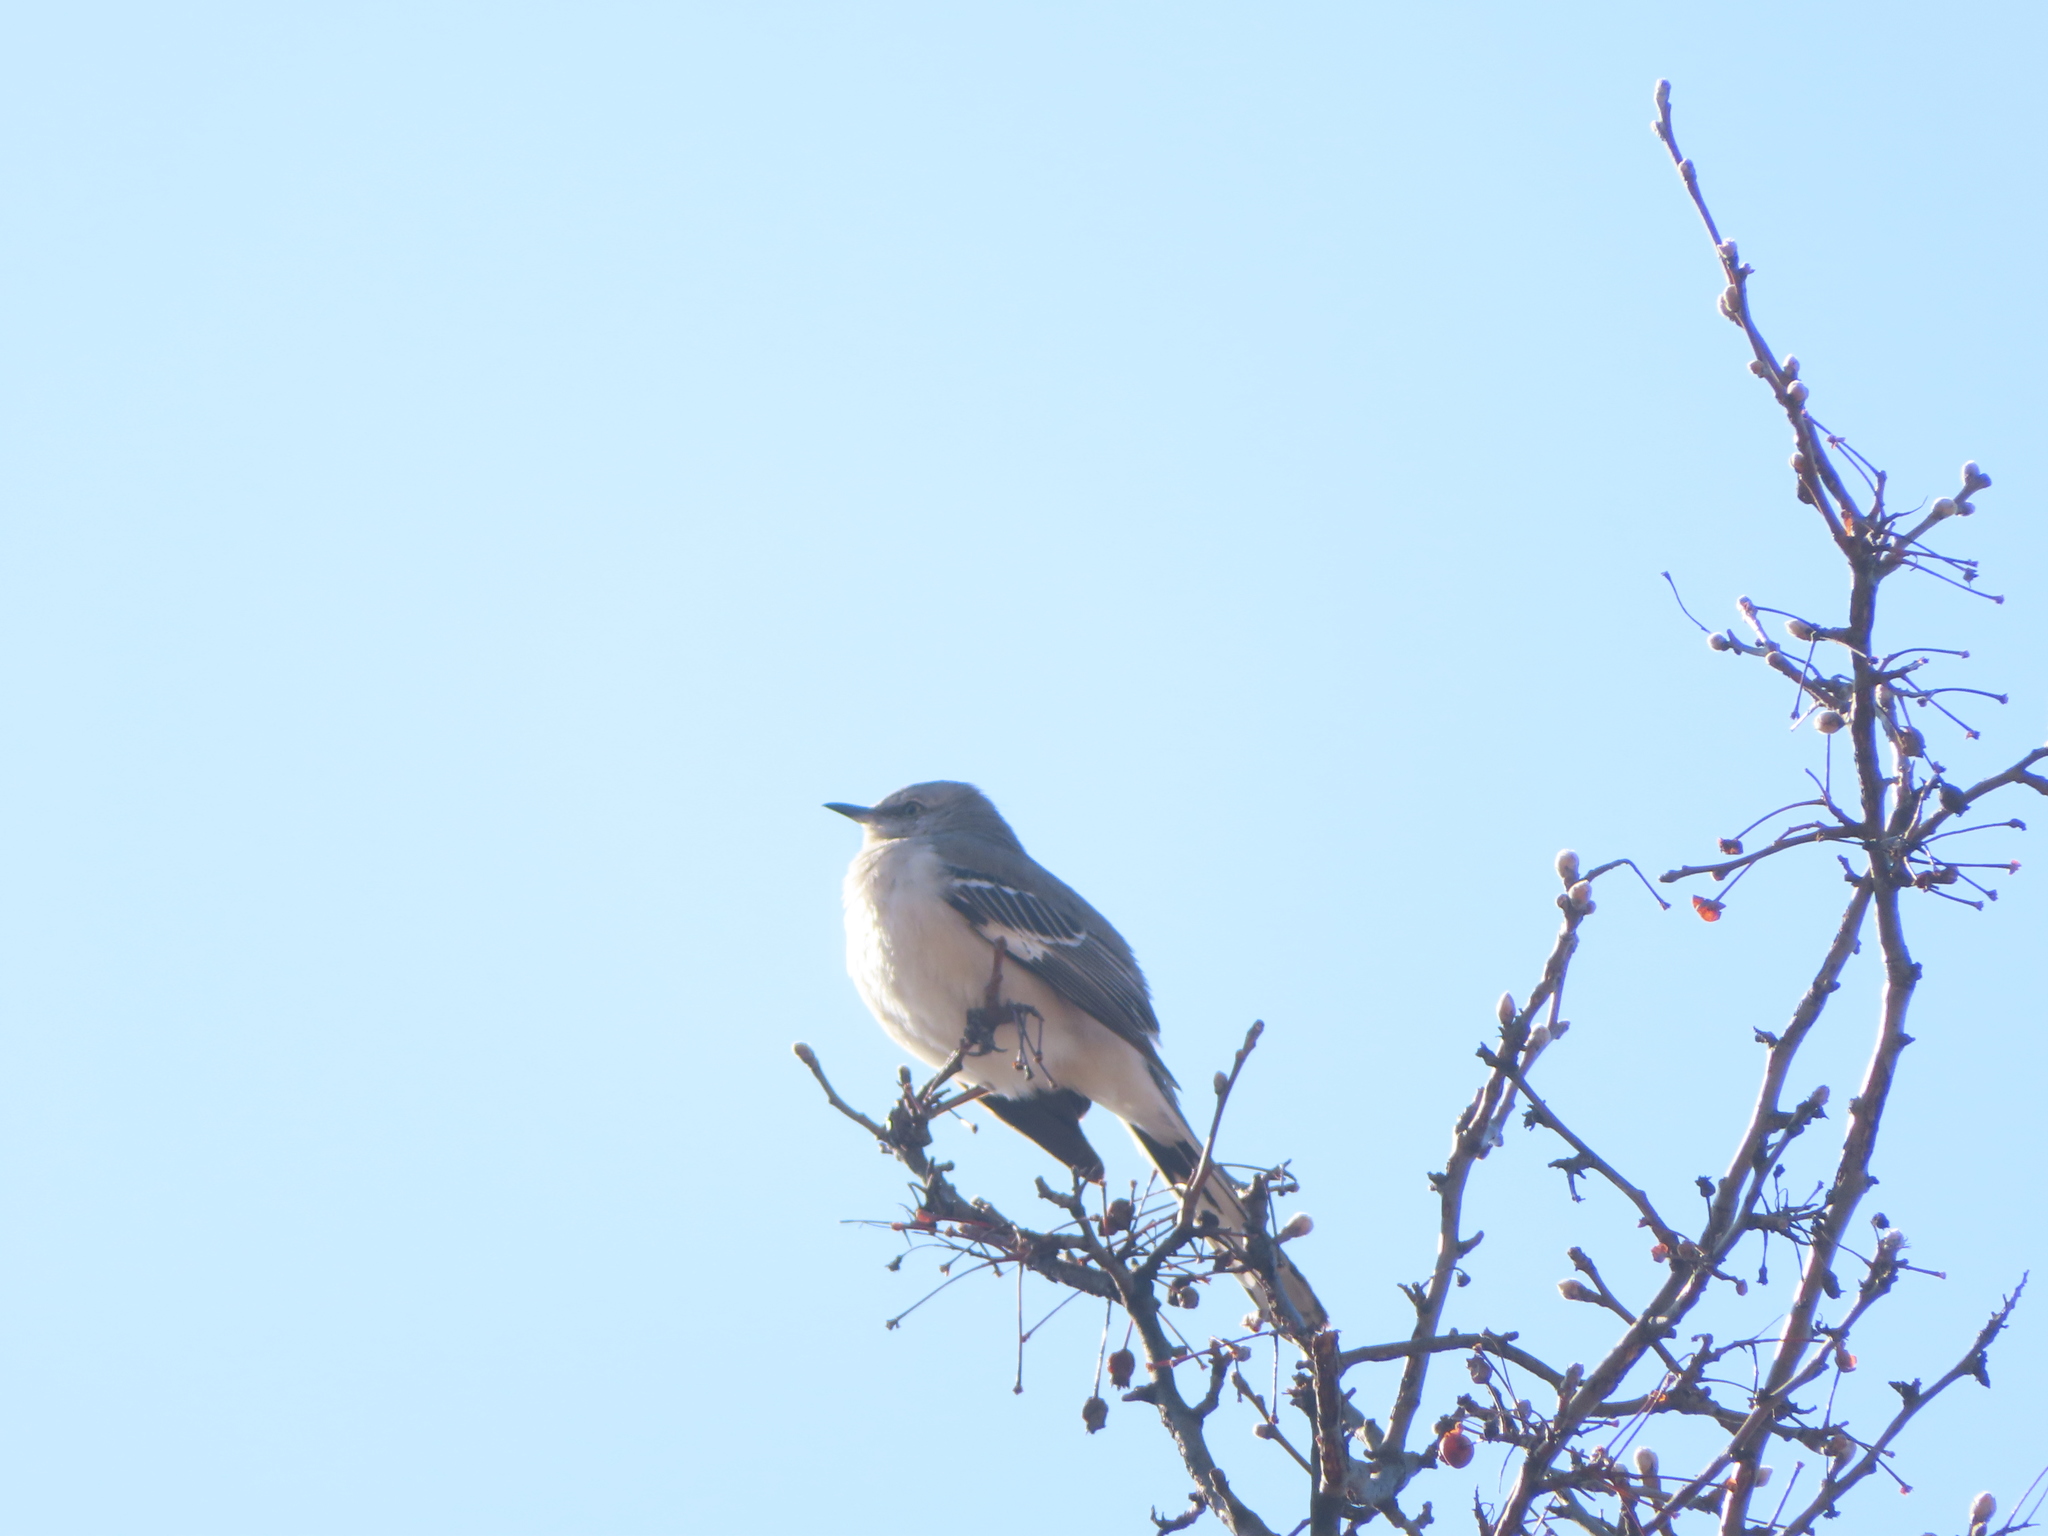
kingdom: Animalia
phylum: Chordata
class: Aves
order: Passeriformes
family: Mimidae
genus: Mimus
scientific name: Mimus polyglottos
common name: Northern mockingbird
